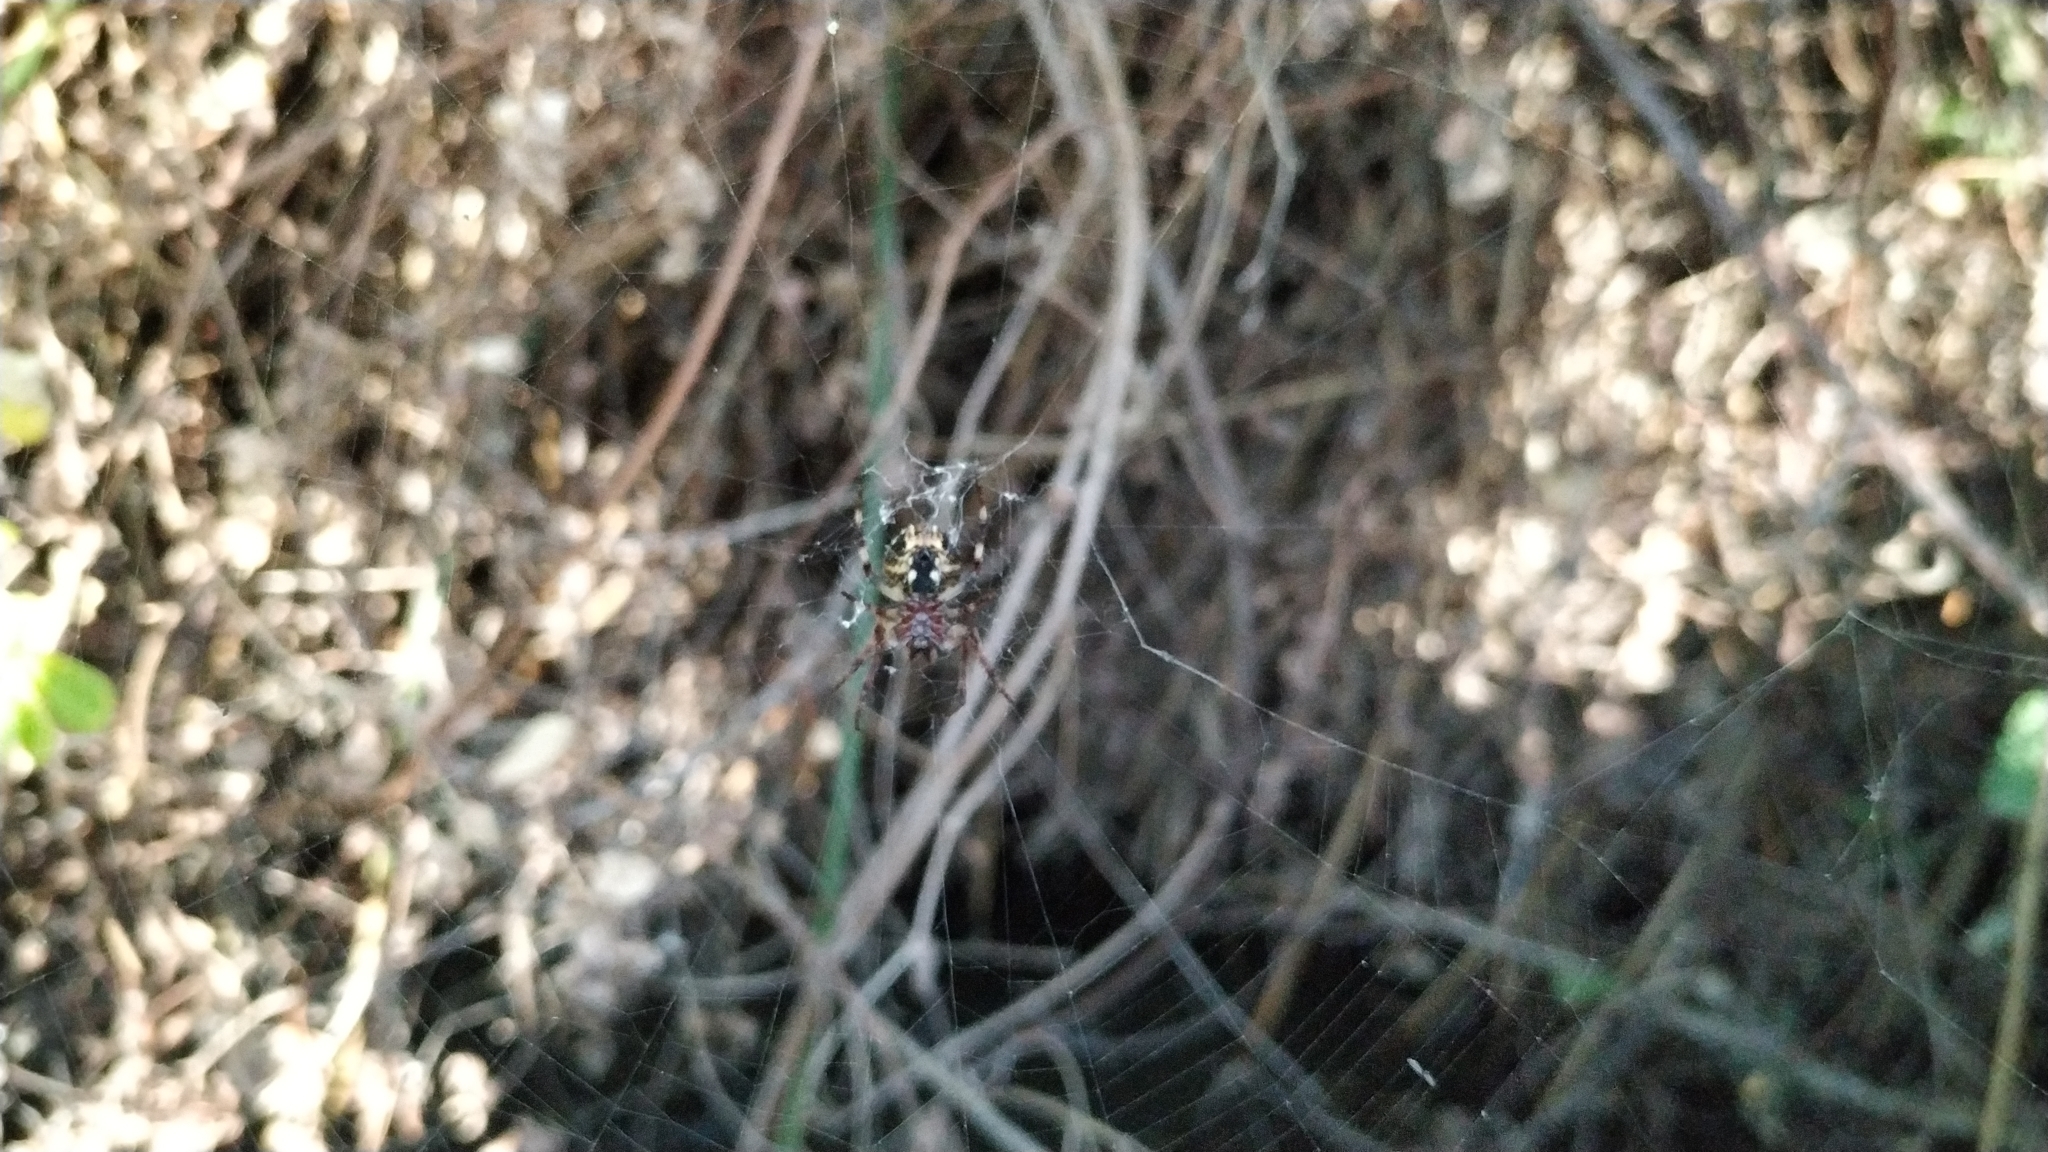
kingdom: Animalia
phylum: Arthropoda
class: Arachnida
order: Araneae
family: Araneidae
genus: Larinioides
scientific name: Larinioides sclopetarius
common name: Bridge orbweaver
